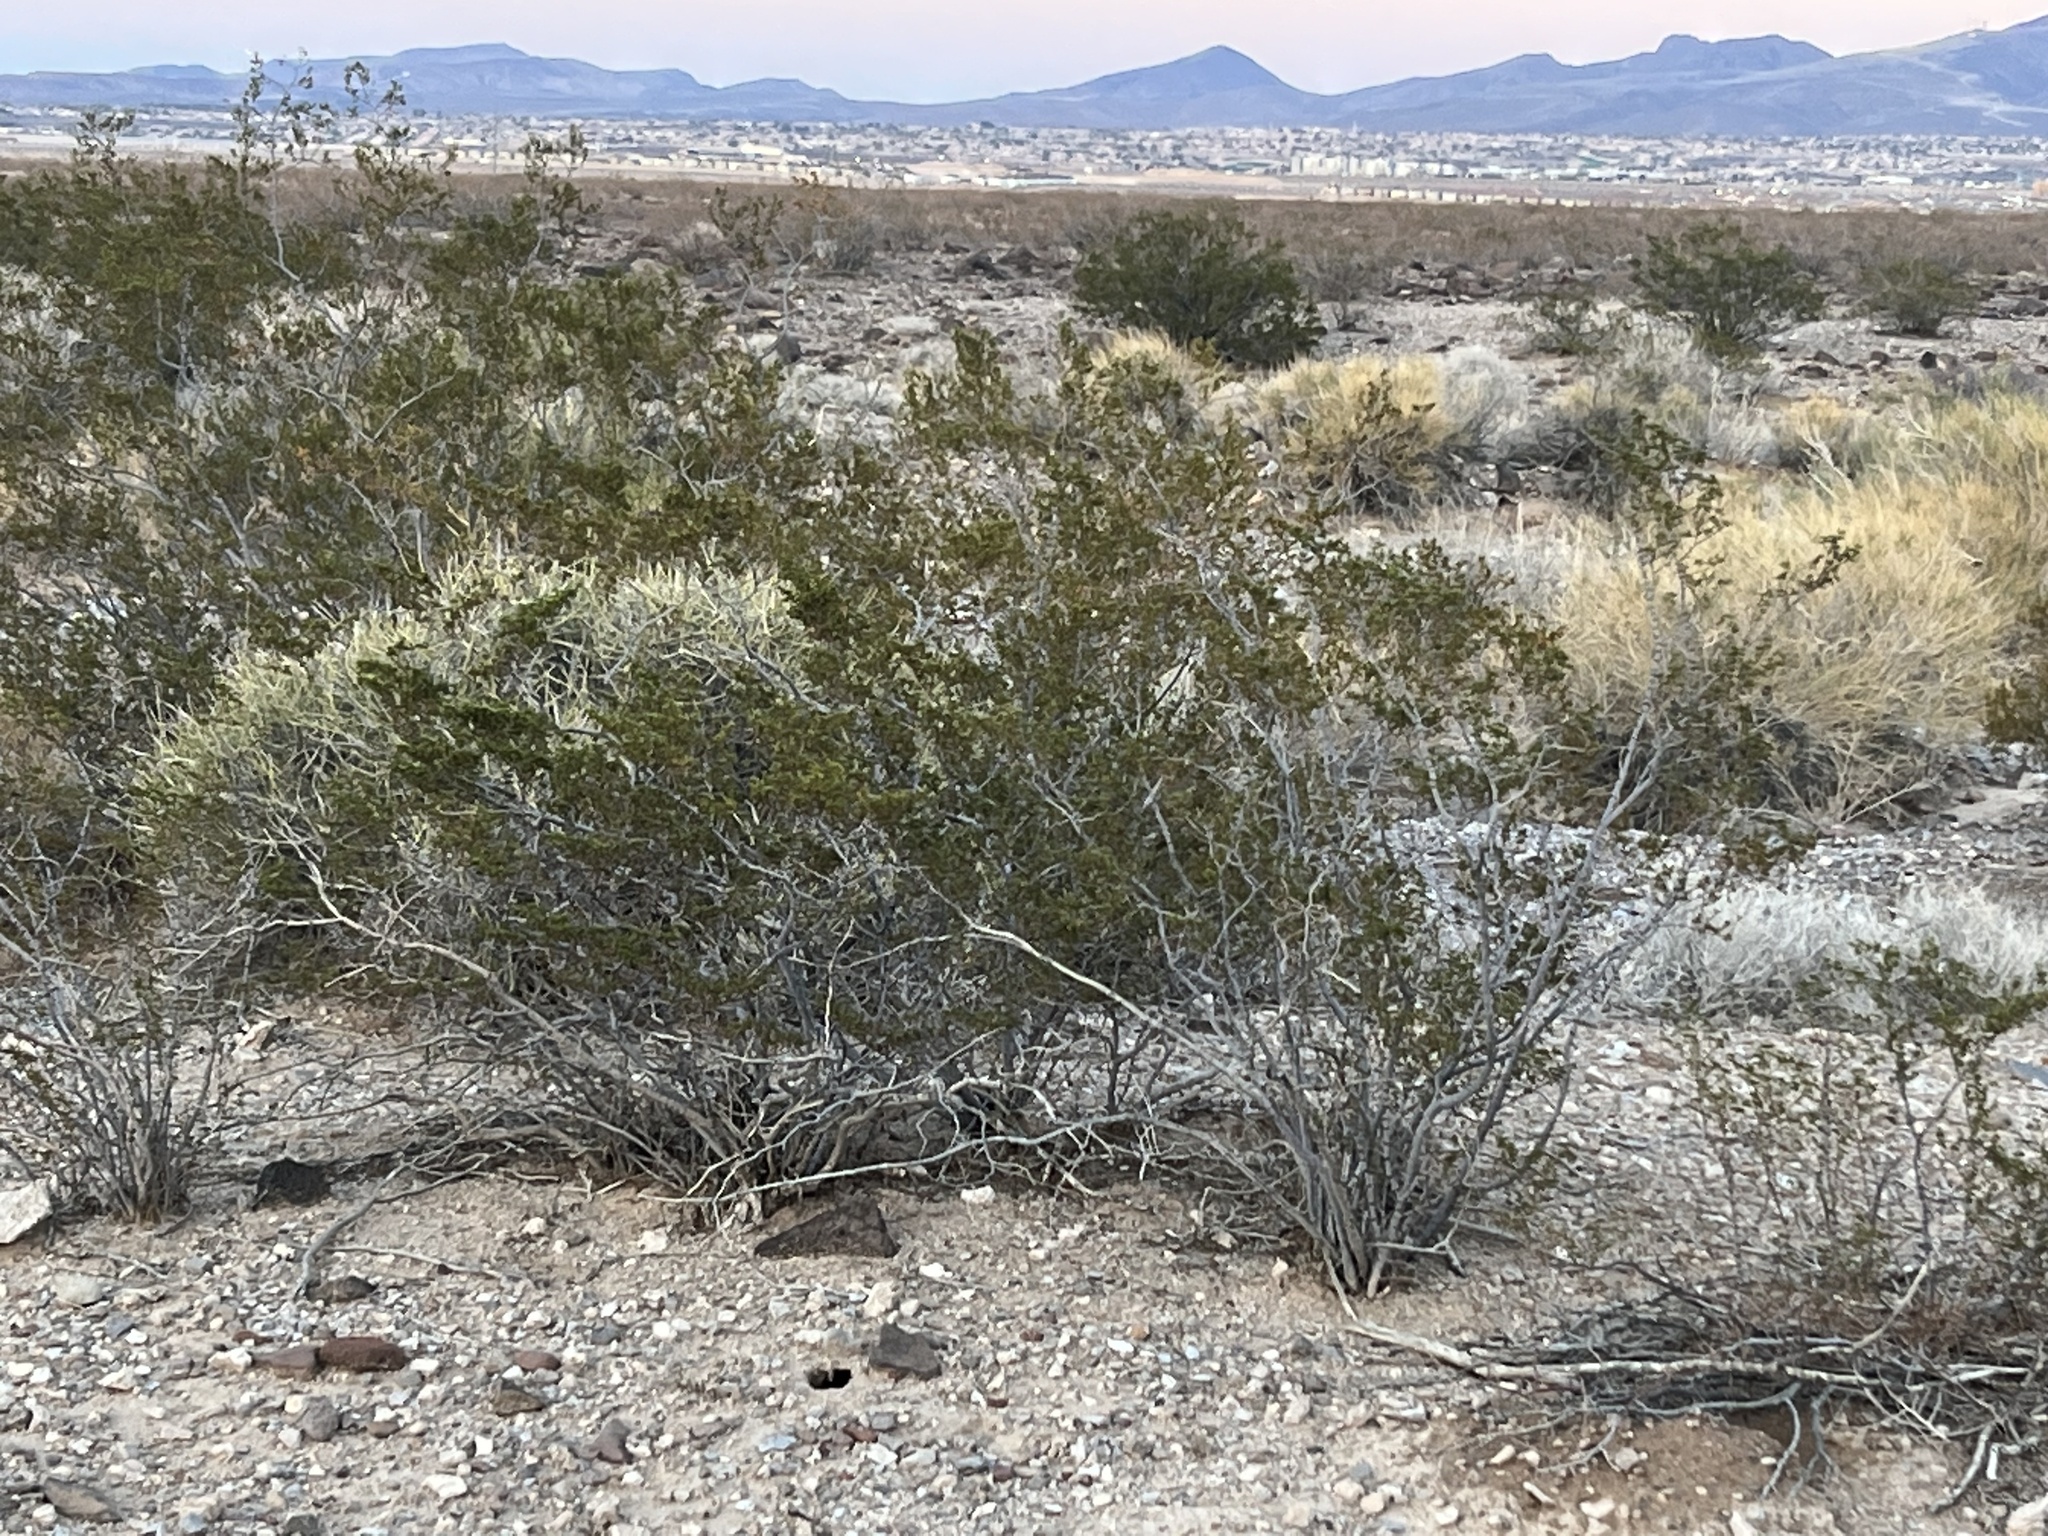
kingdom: Plantae
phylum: Tracheophyta
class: Magnoliopsida
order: Zygophyllales
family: Zygophyllaceae
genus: Larrea
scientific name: Larrea tridentata
